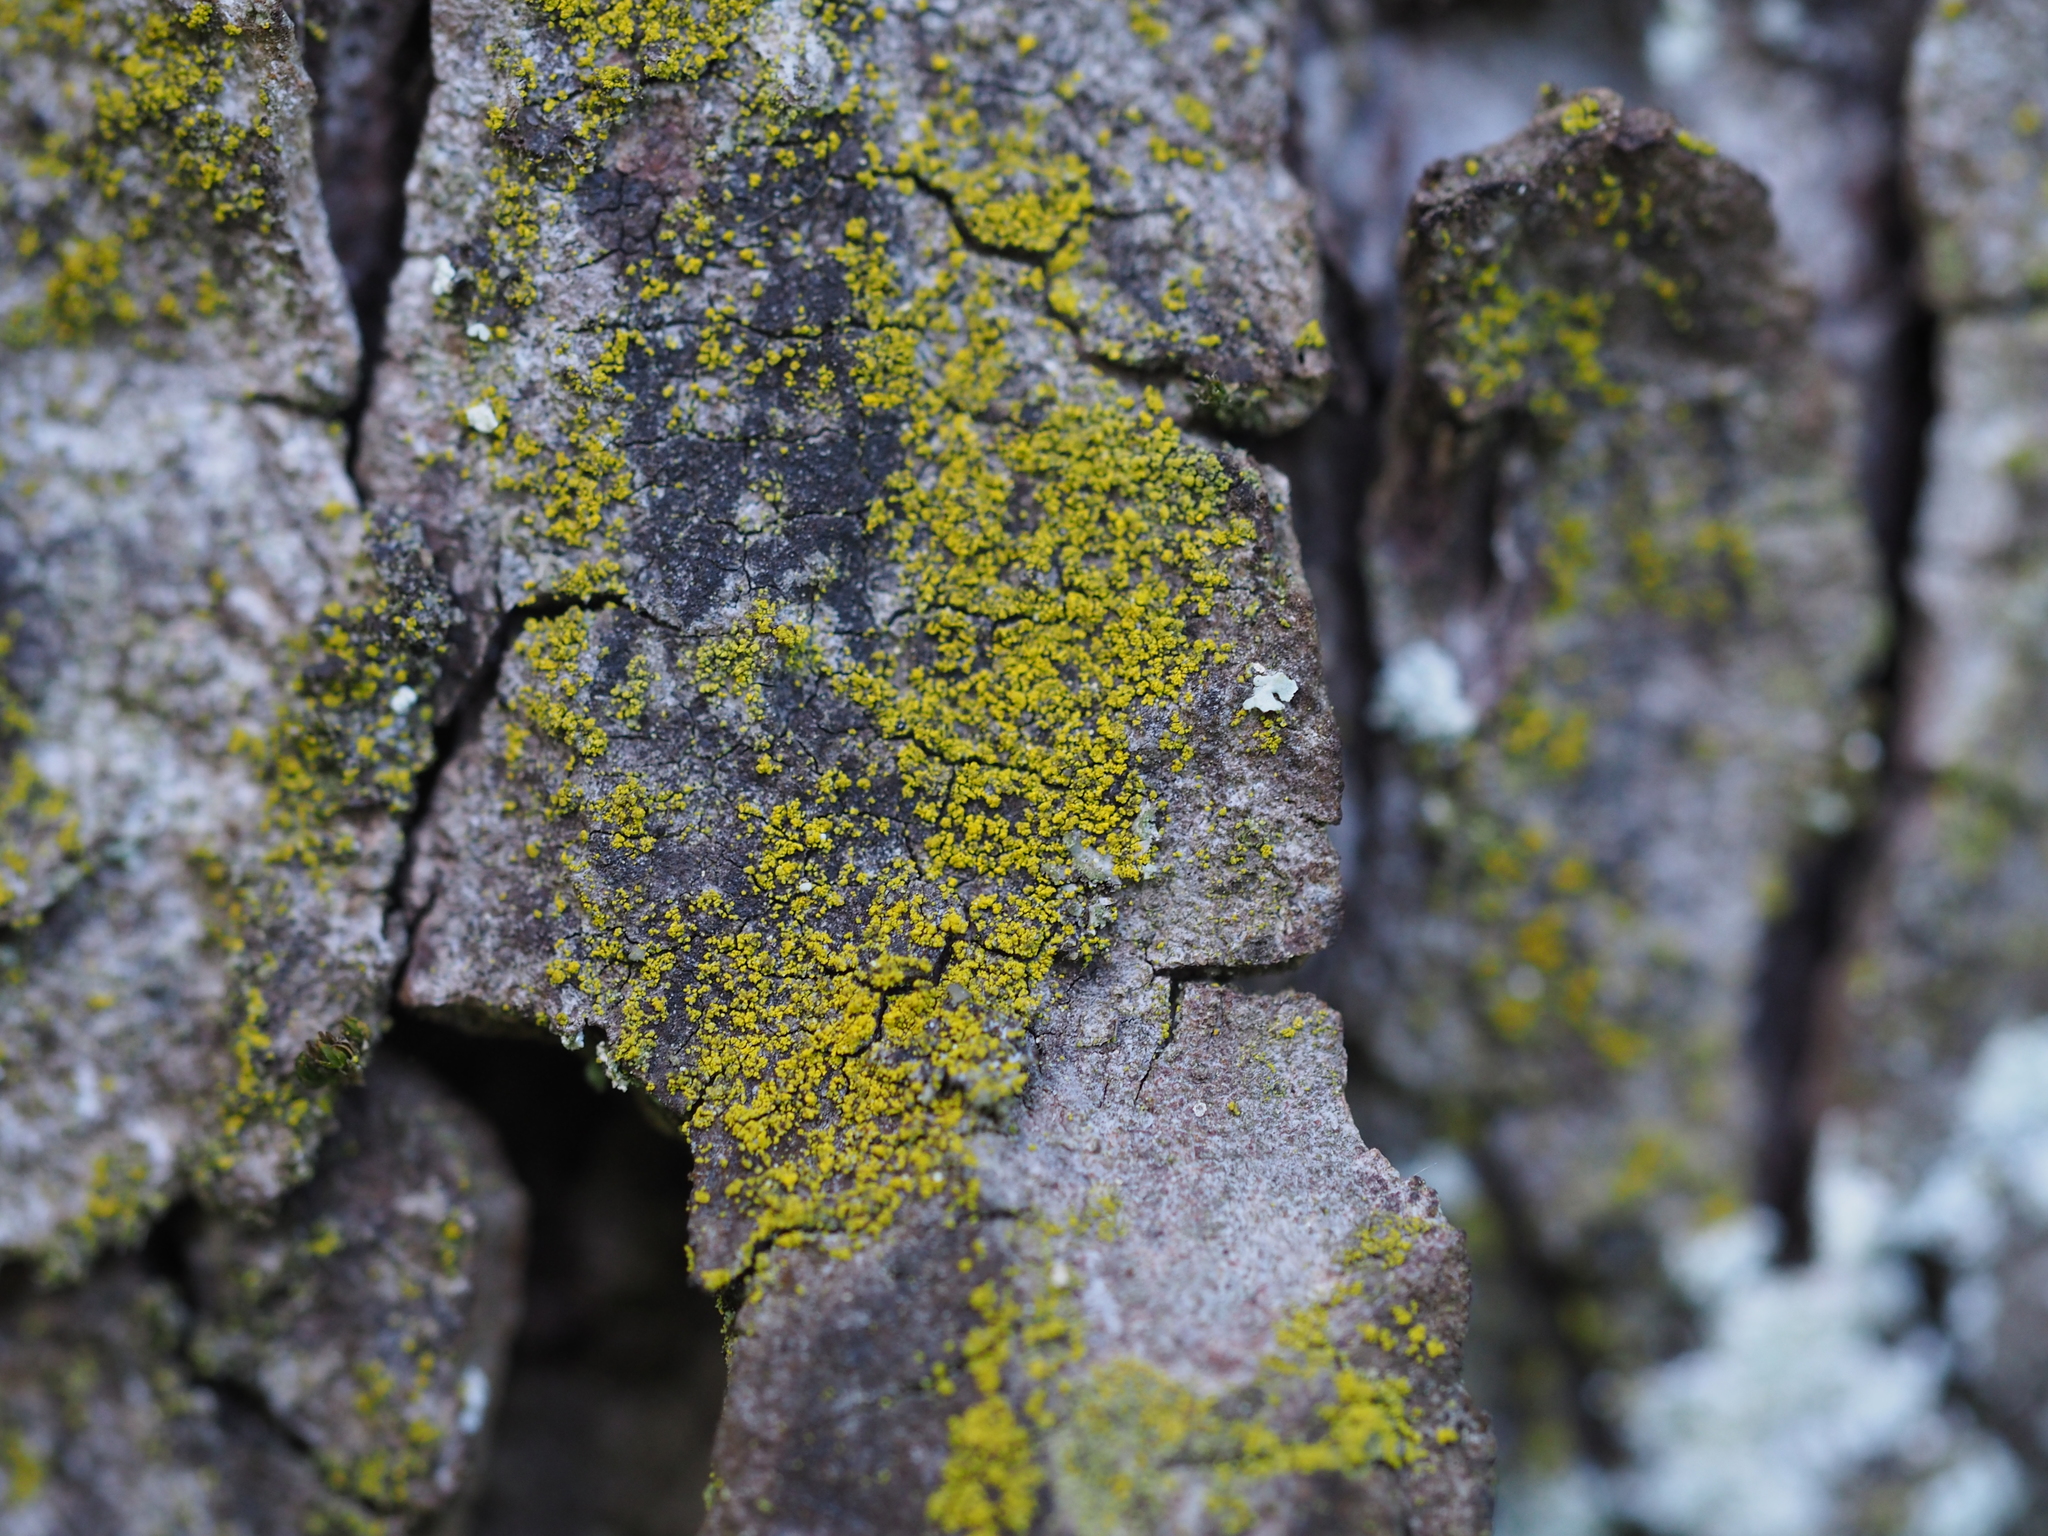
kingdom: Fungi
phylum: Ascomycota
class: Candelariomycetes
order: Candelariales
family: Candelariaceae
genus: Candelariella
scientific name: Candelariella xanthostigma
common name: Granular goldspeck lichen
